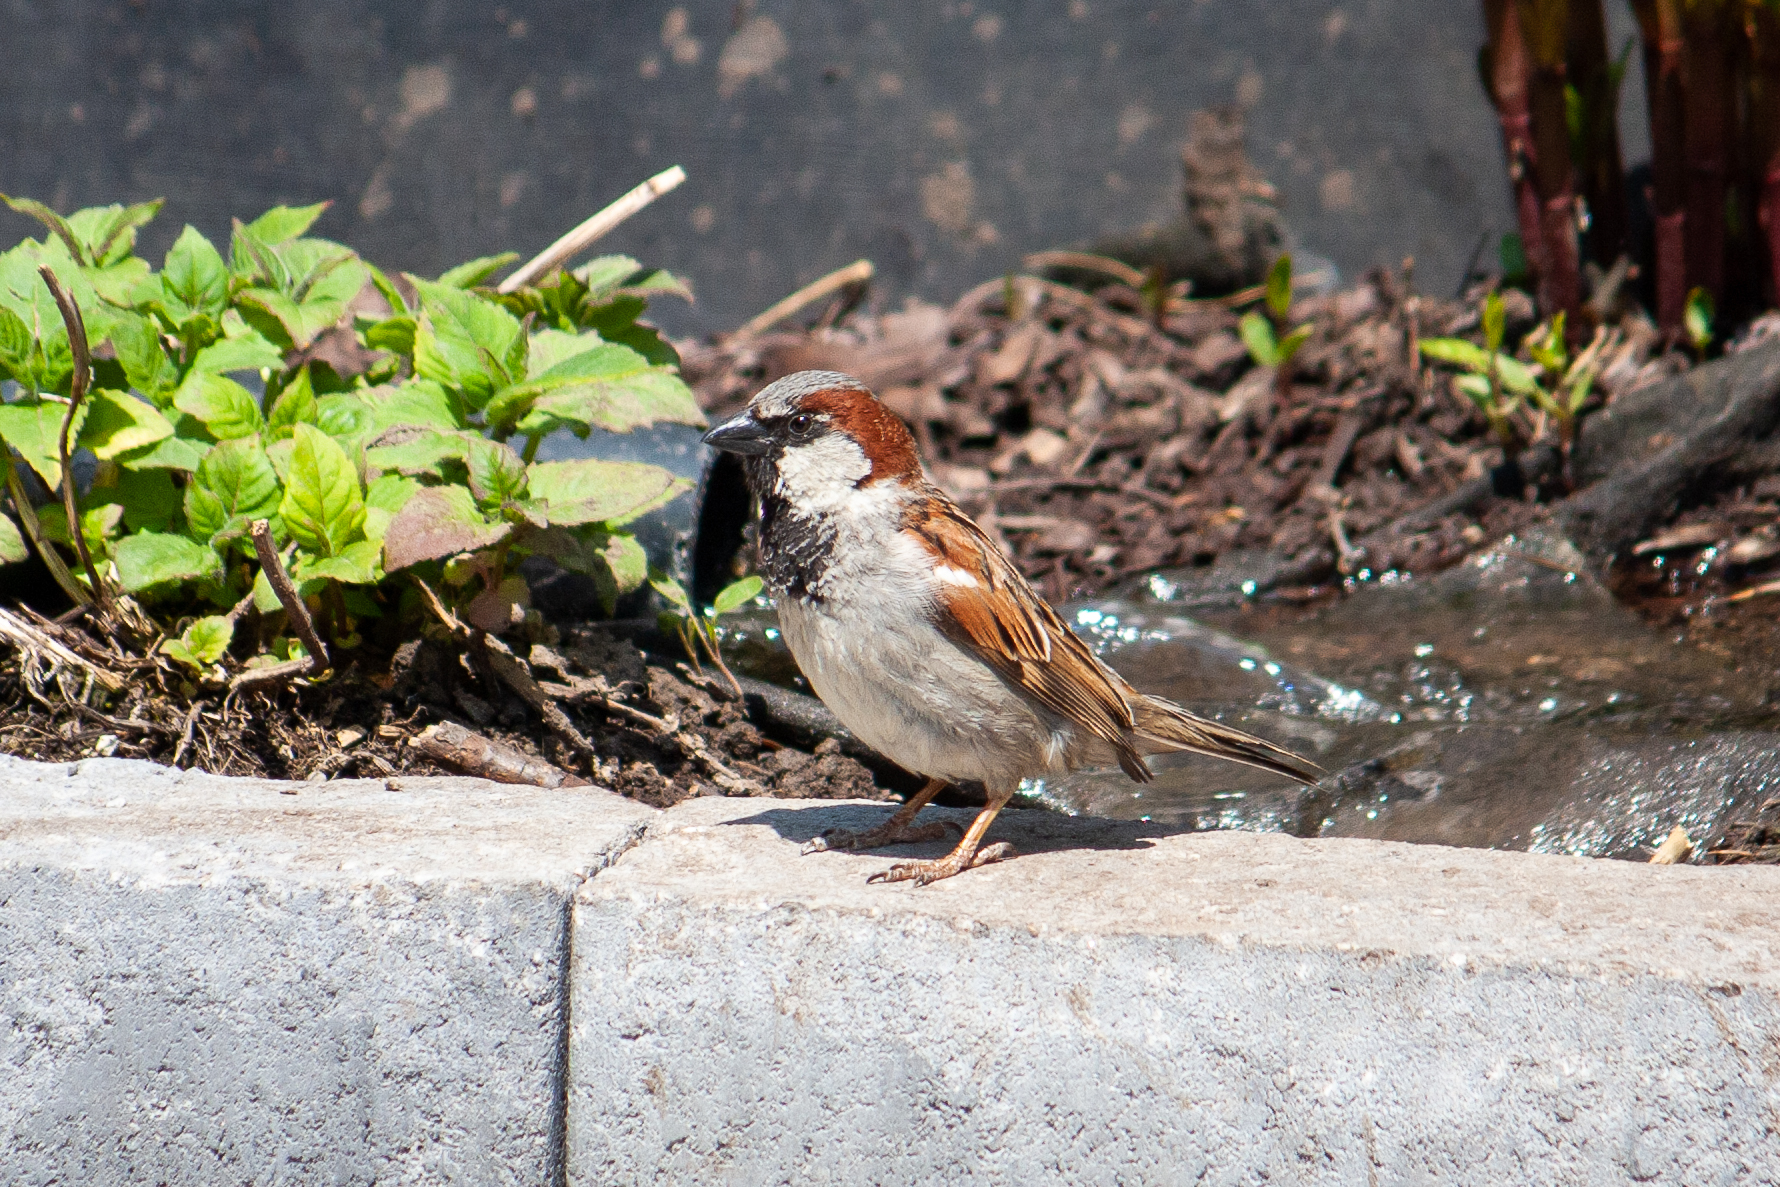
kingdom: Animalia
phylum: Chordata
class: Aves
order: Passeriformes
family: Passeridae
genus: Passer
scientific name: Passer domesticus
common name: House sparrow
